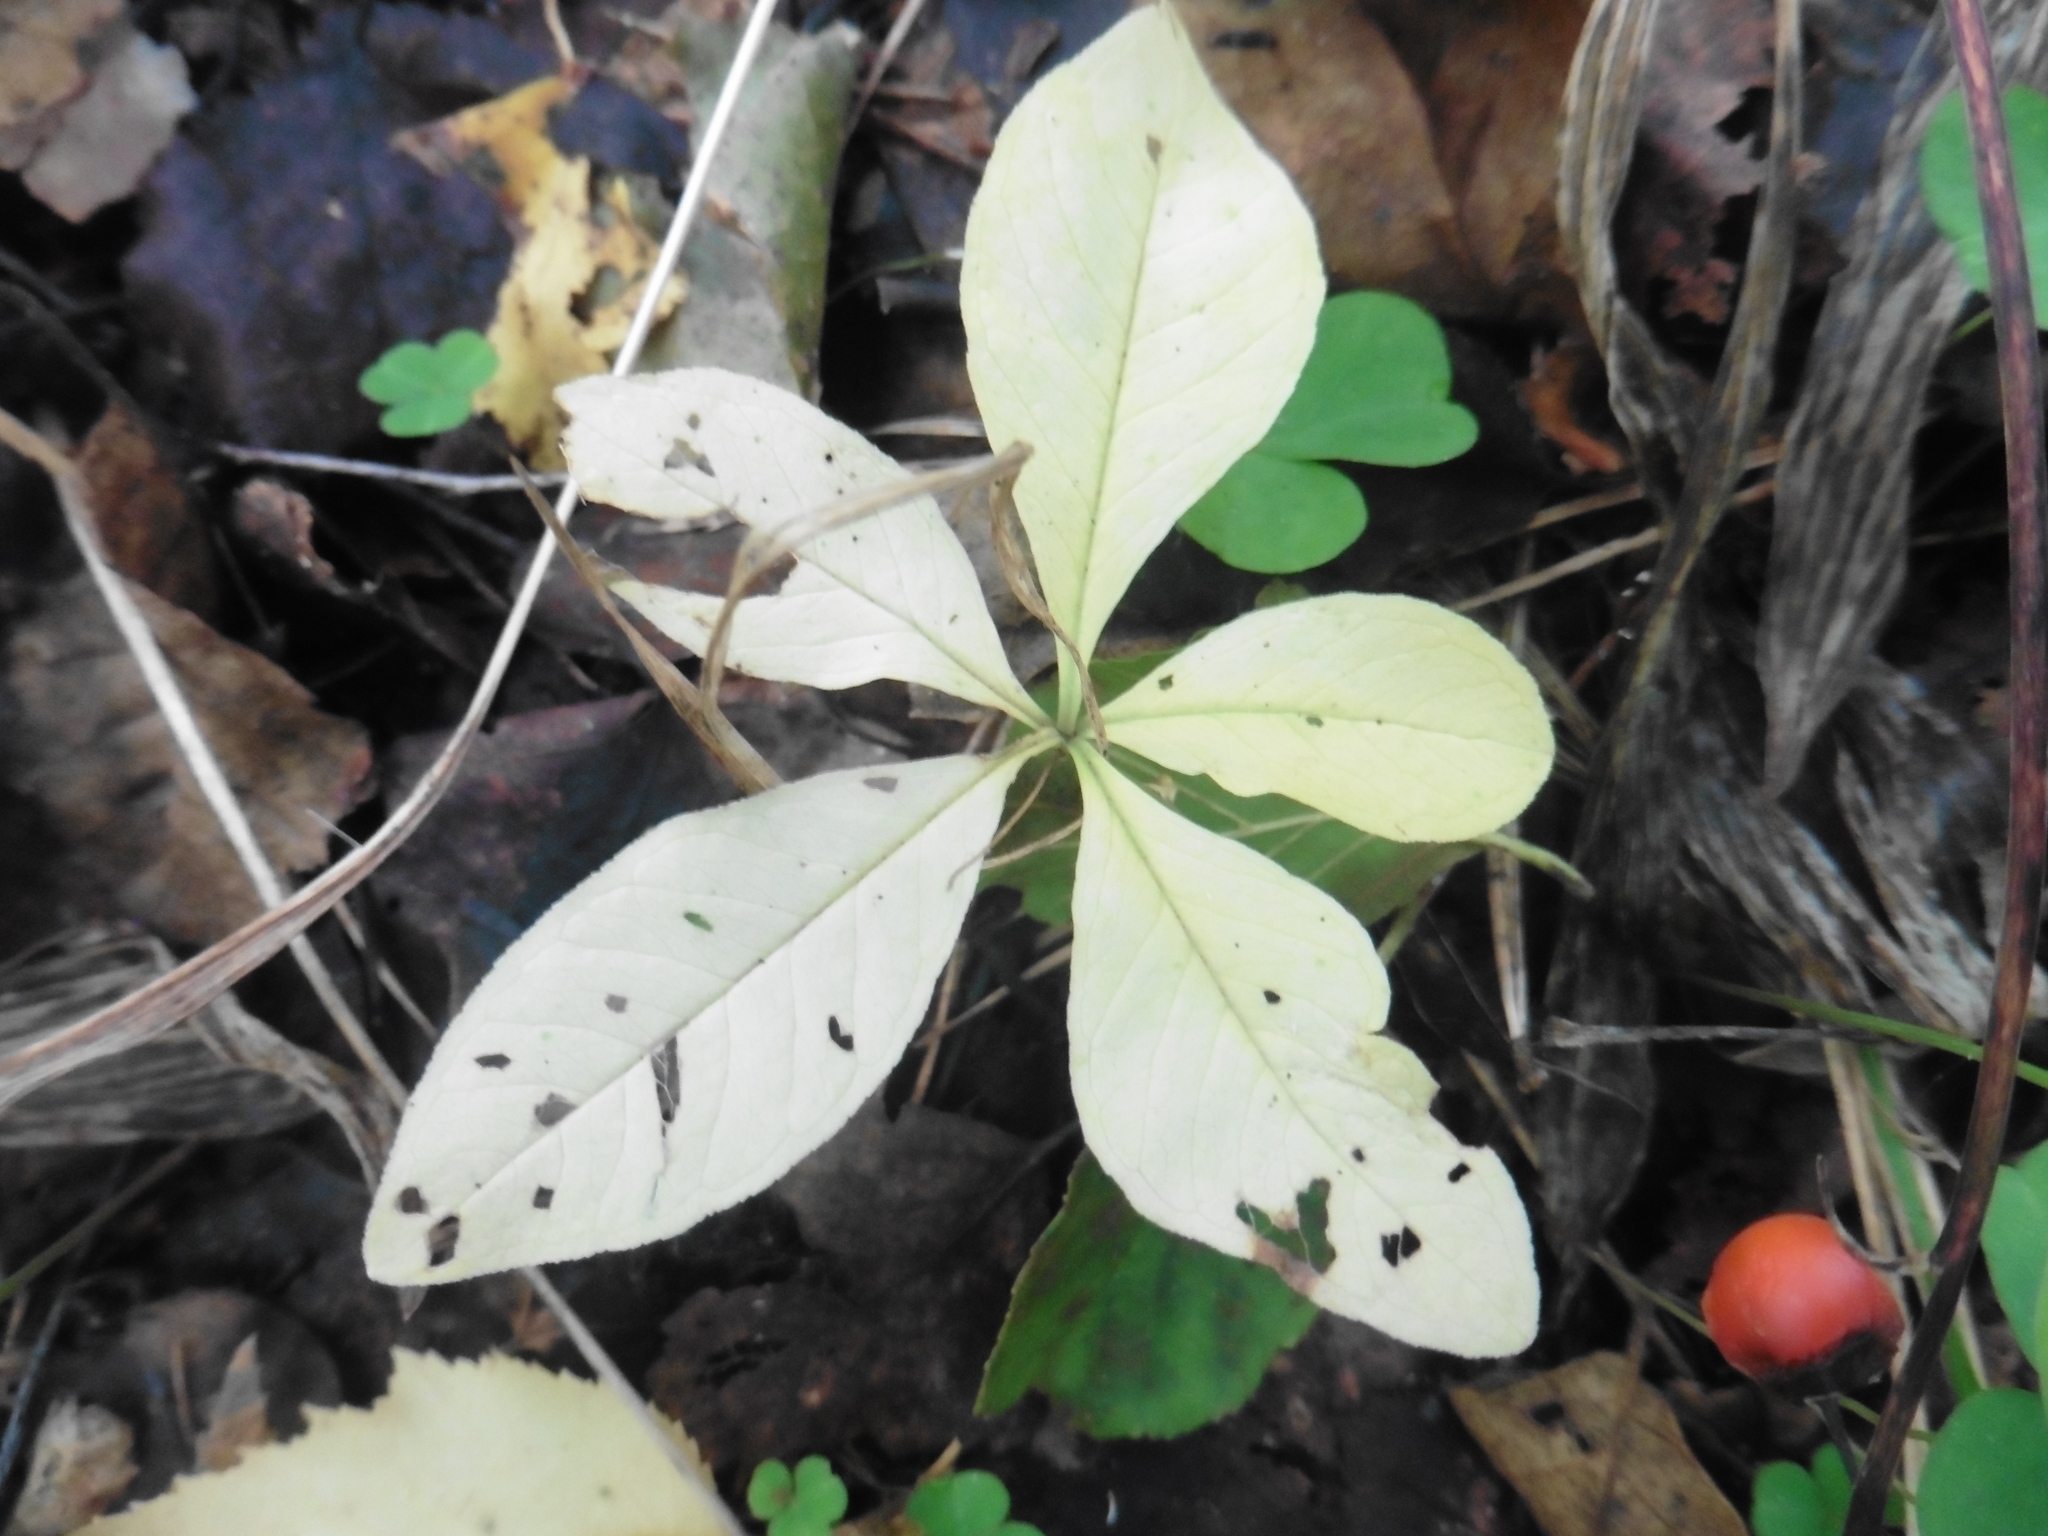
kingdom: Plantae
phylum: Tracheophyta
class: Magnoliopsida
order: Ericales
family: Primulaceae
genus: Lysimachia
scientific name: Lysimachia europaea
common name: Arctic starflower
